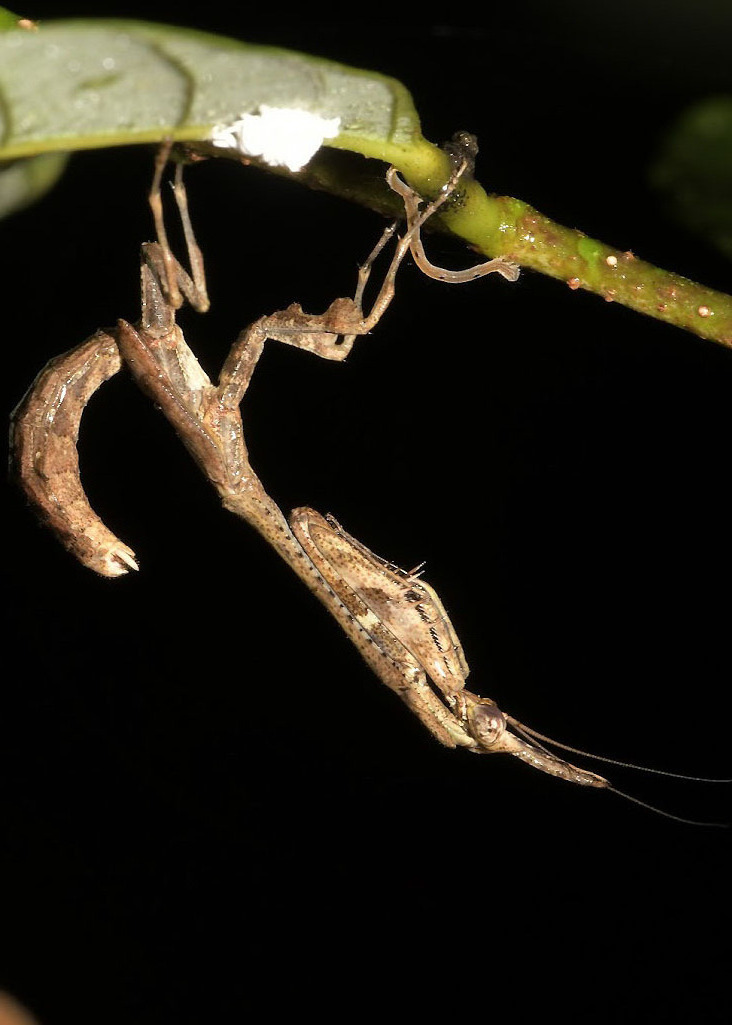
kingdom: Animalia
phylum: Arthropoda
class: Insecta
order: Mantodea
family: Hymenopodidae
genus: Phyllothelys
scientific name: Phyllothelys werneri
